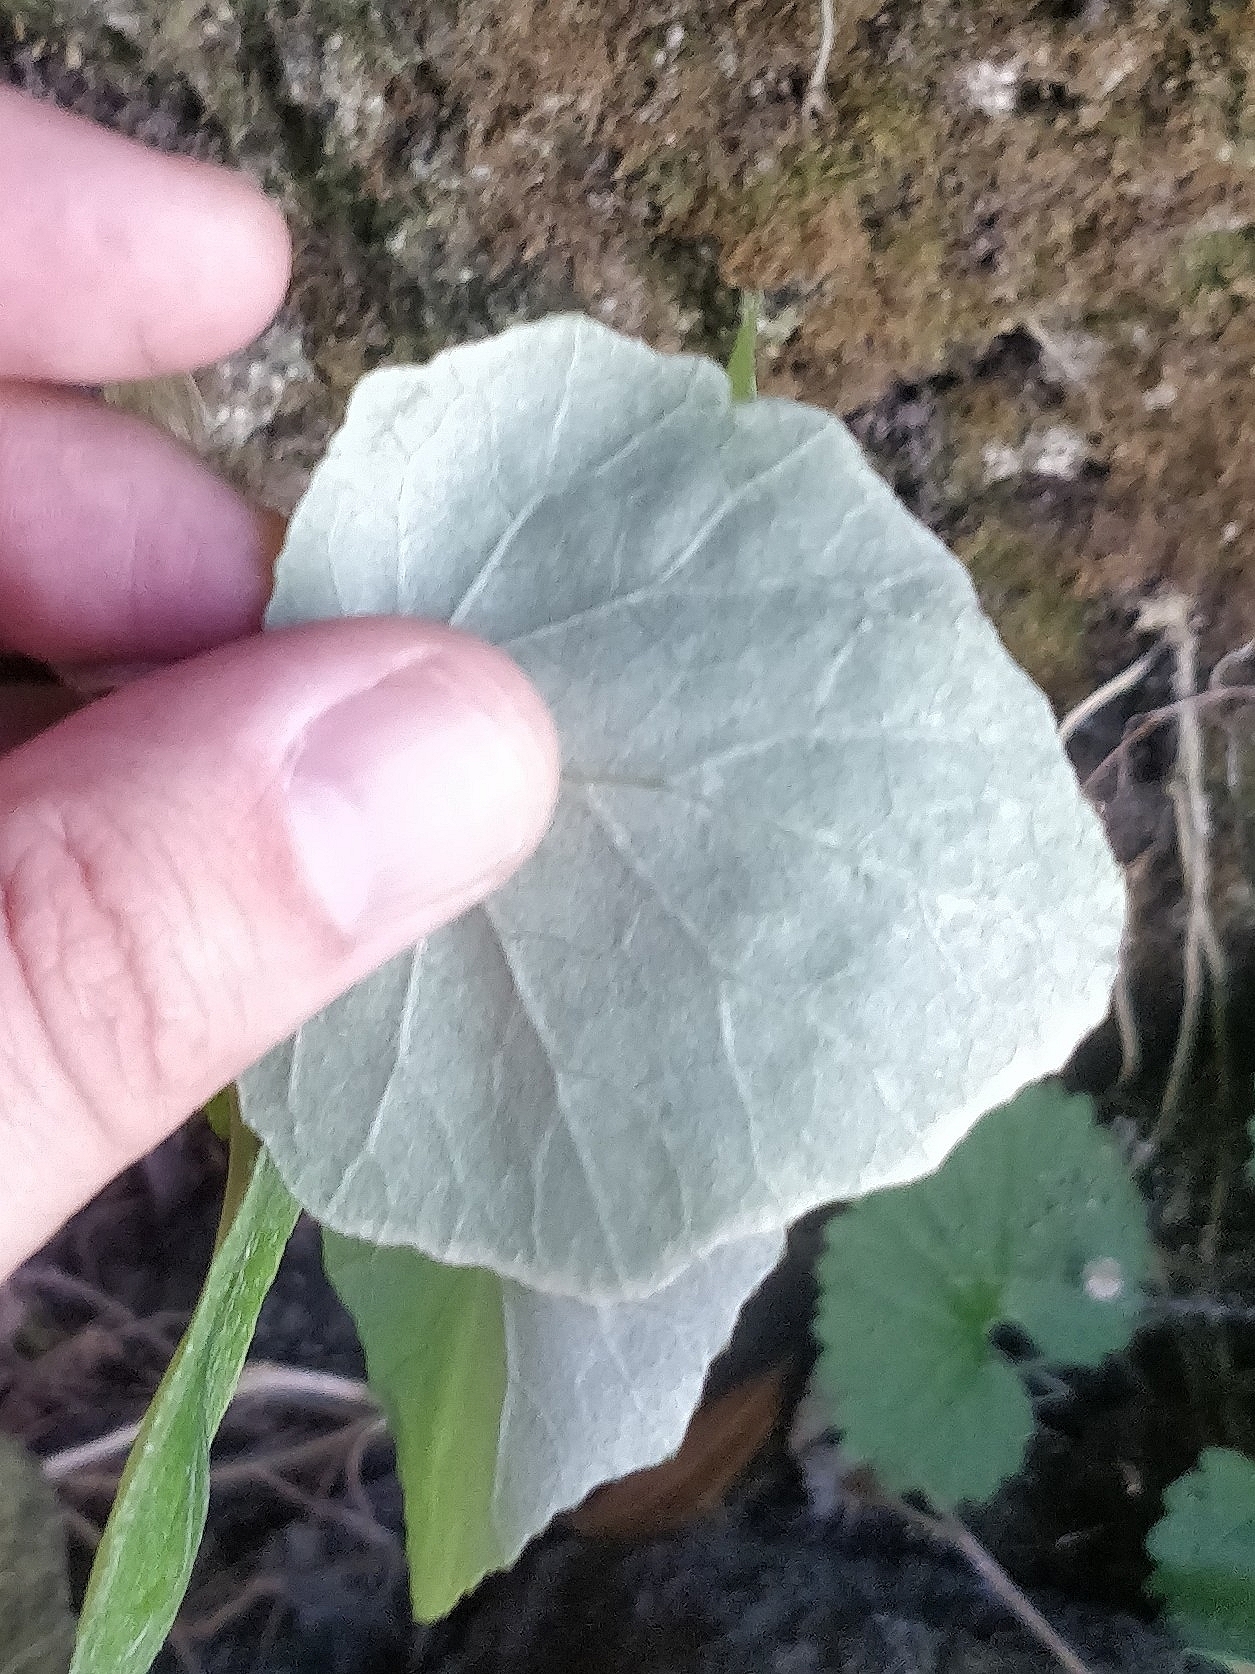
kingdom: Plantae
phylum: Tracheophyta
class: Magnoliopsida
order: Asterales
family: Asteraceae
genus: Pericallis
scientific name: Pericallis aurita
